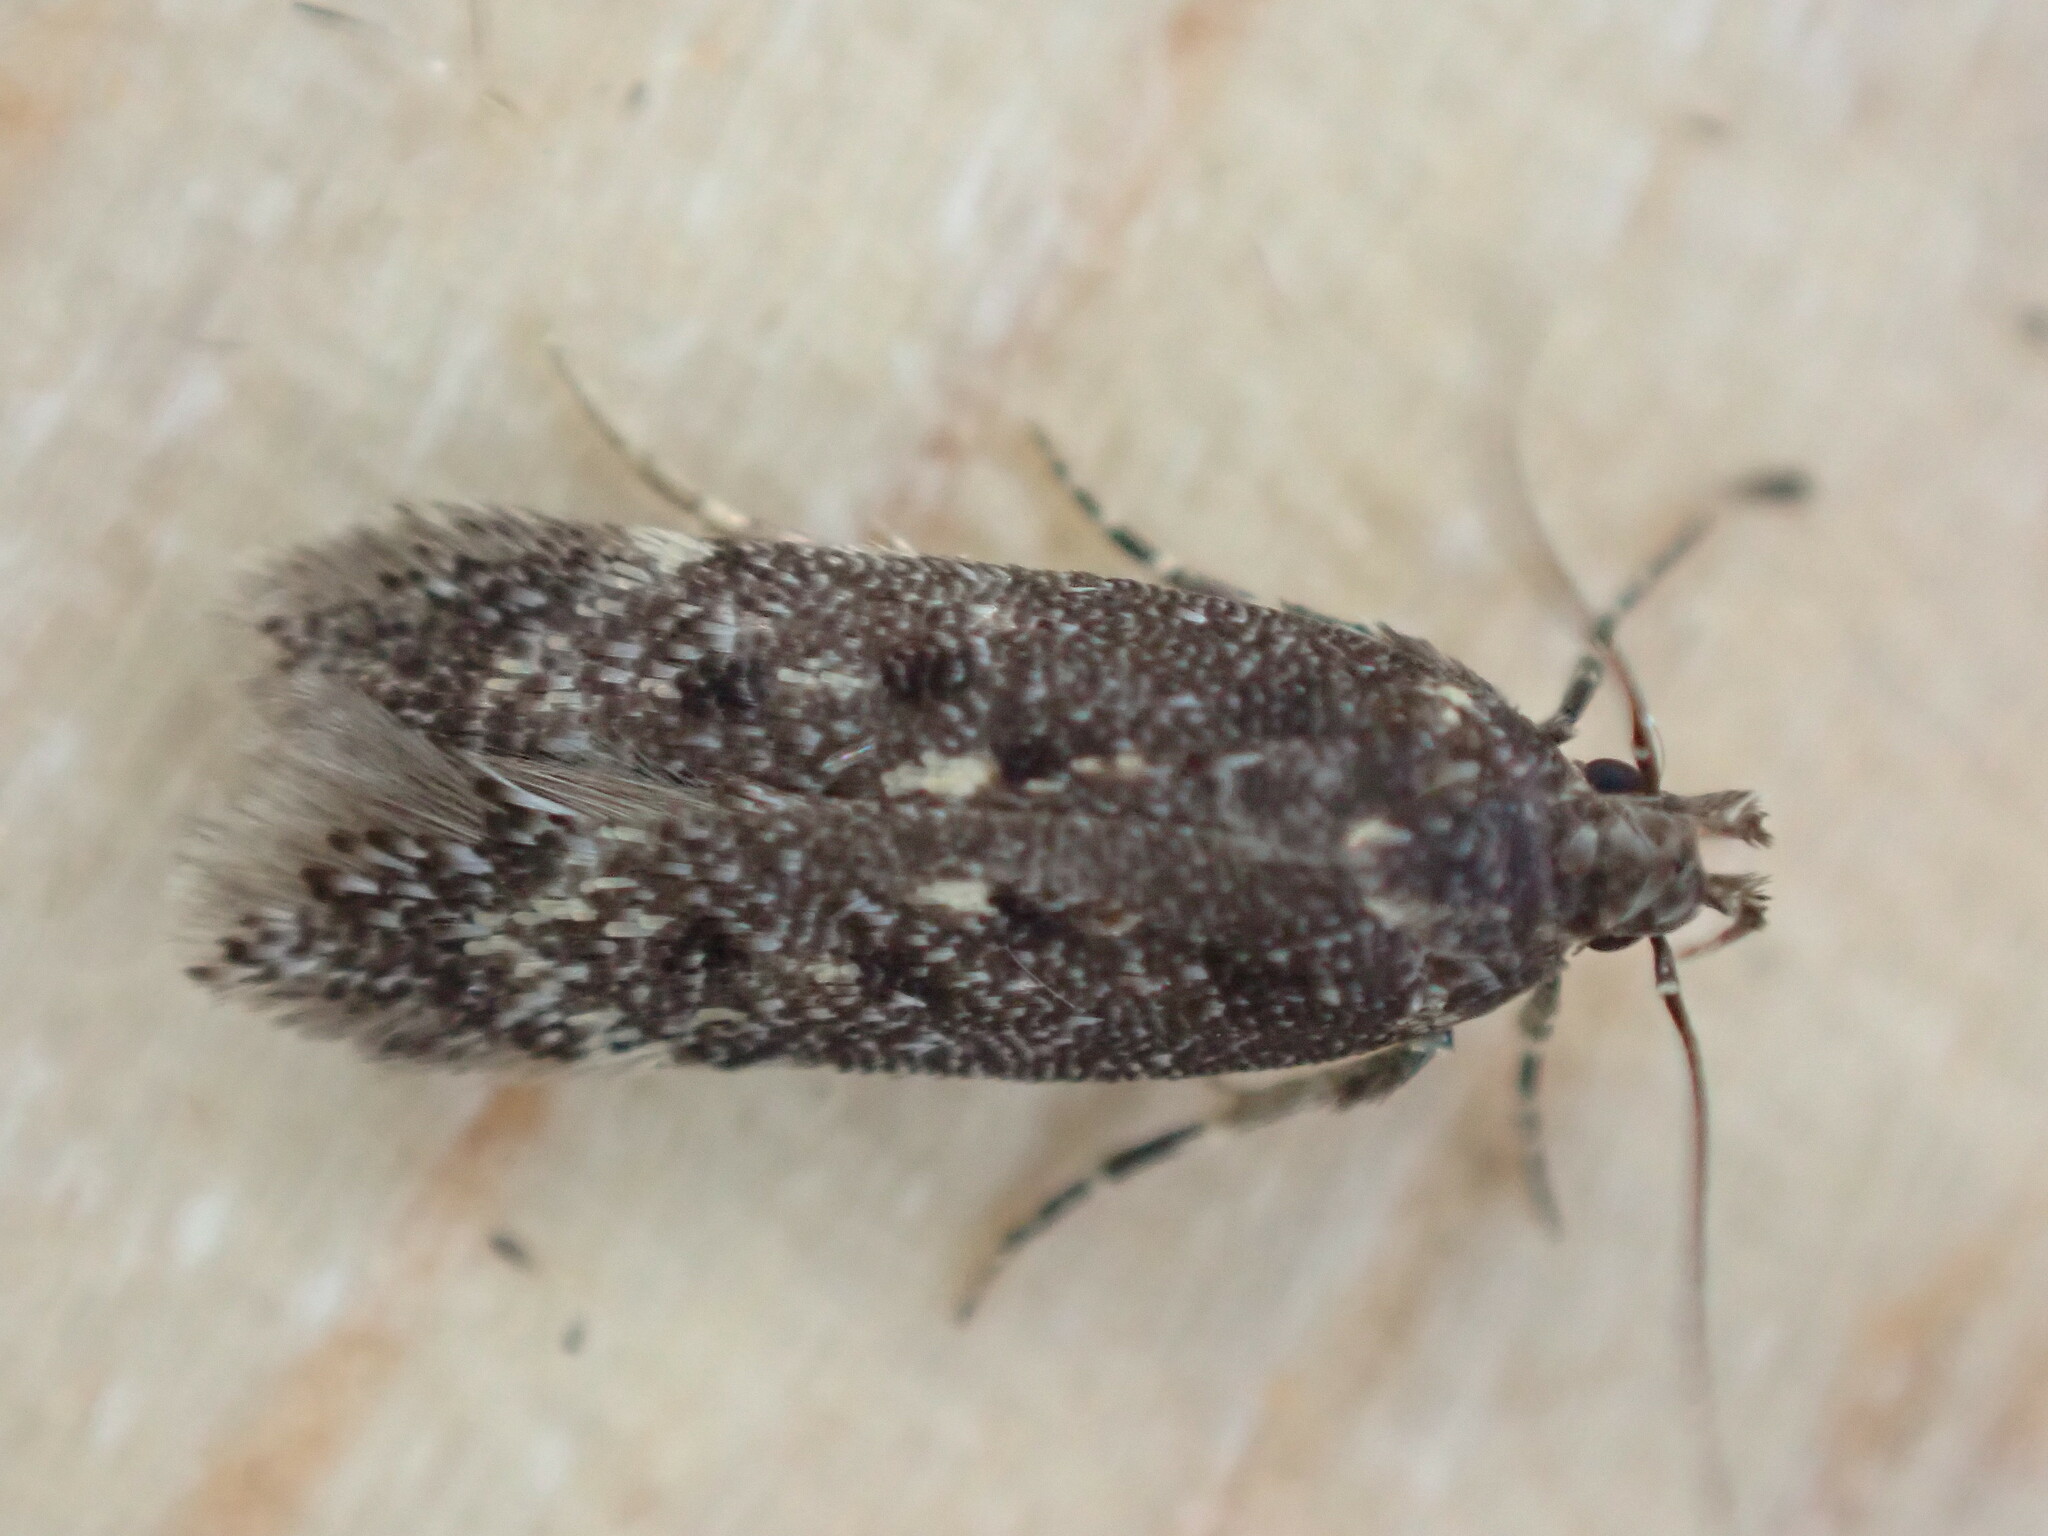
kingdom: Animalia
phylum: Arthropoda
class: Insecta
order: Lepidoptera
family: Gelechiidae
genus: Bryotropha
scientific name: Bryotropha affinis
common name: Dark groundling
